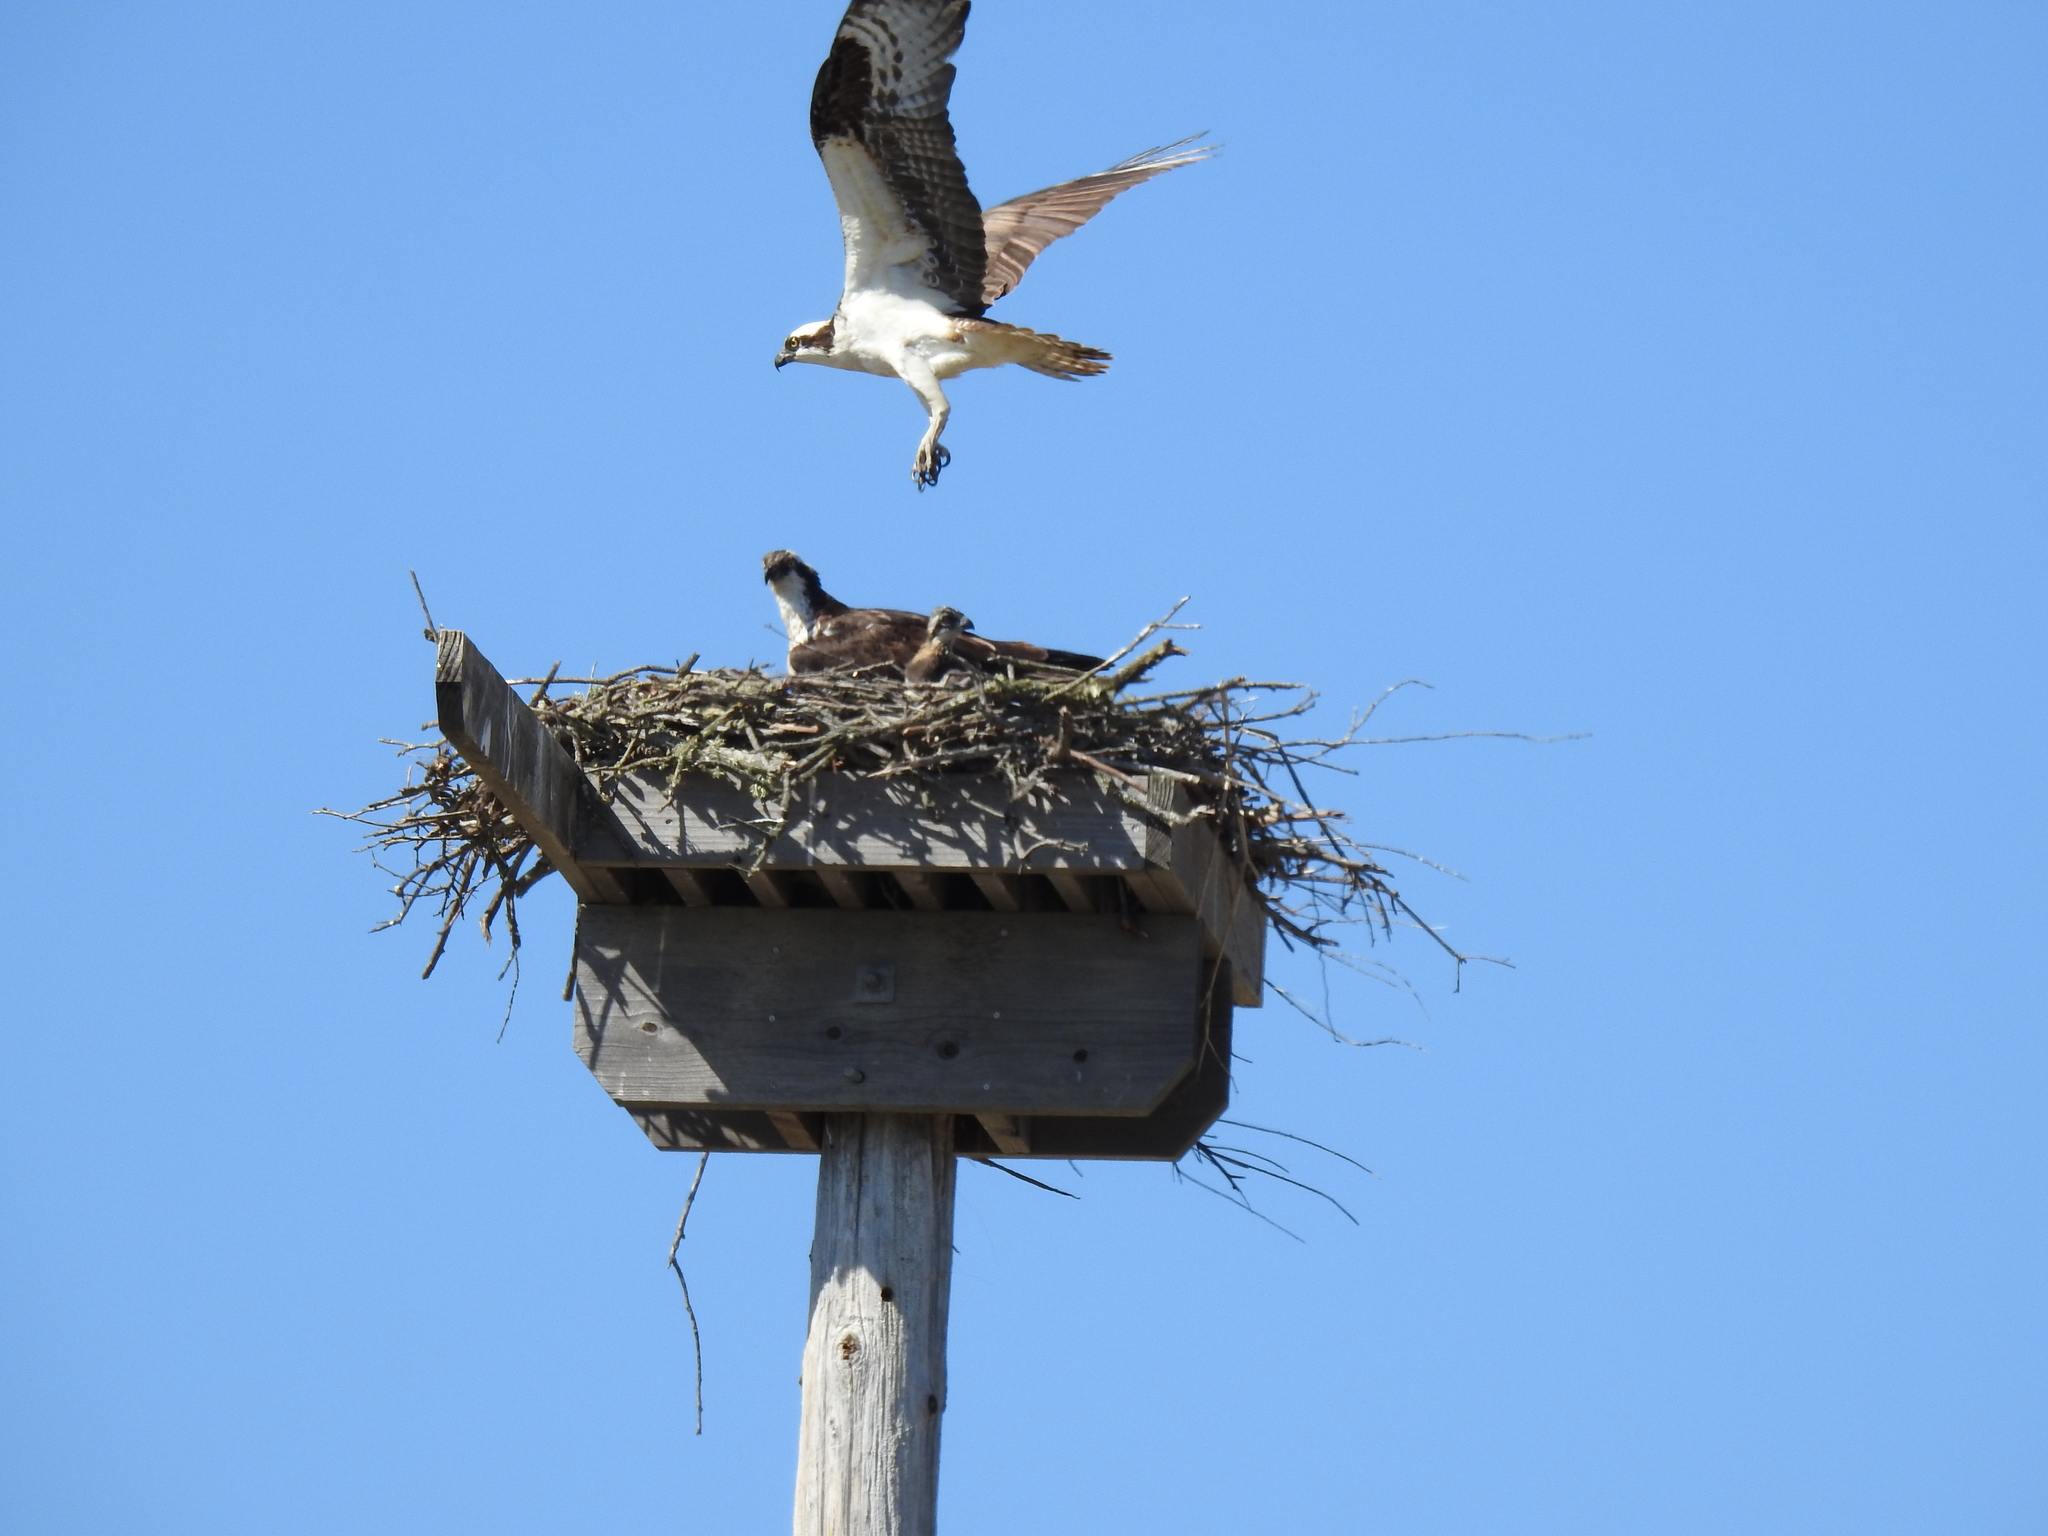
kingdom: Animalia
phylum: Chordata
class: Aves
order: Accipitriformes
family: Pandionidae
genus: Pandion
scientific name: Pandion haliaetus
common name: Osprey
